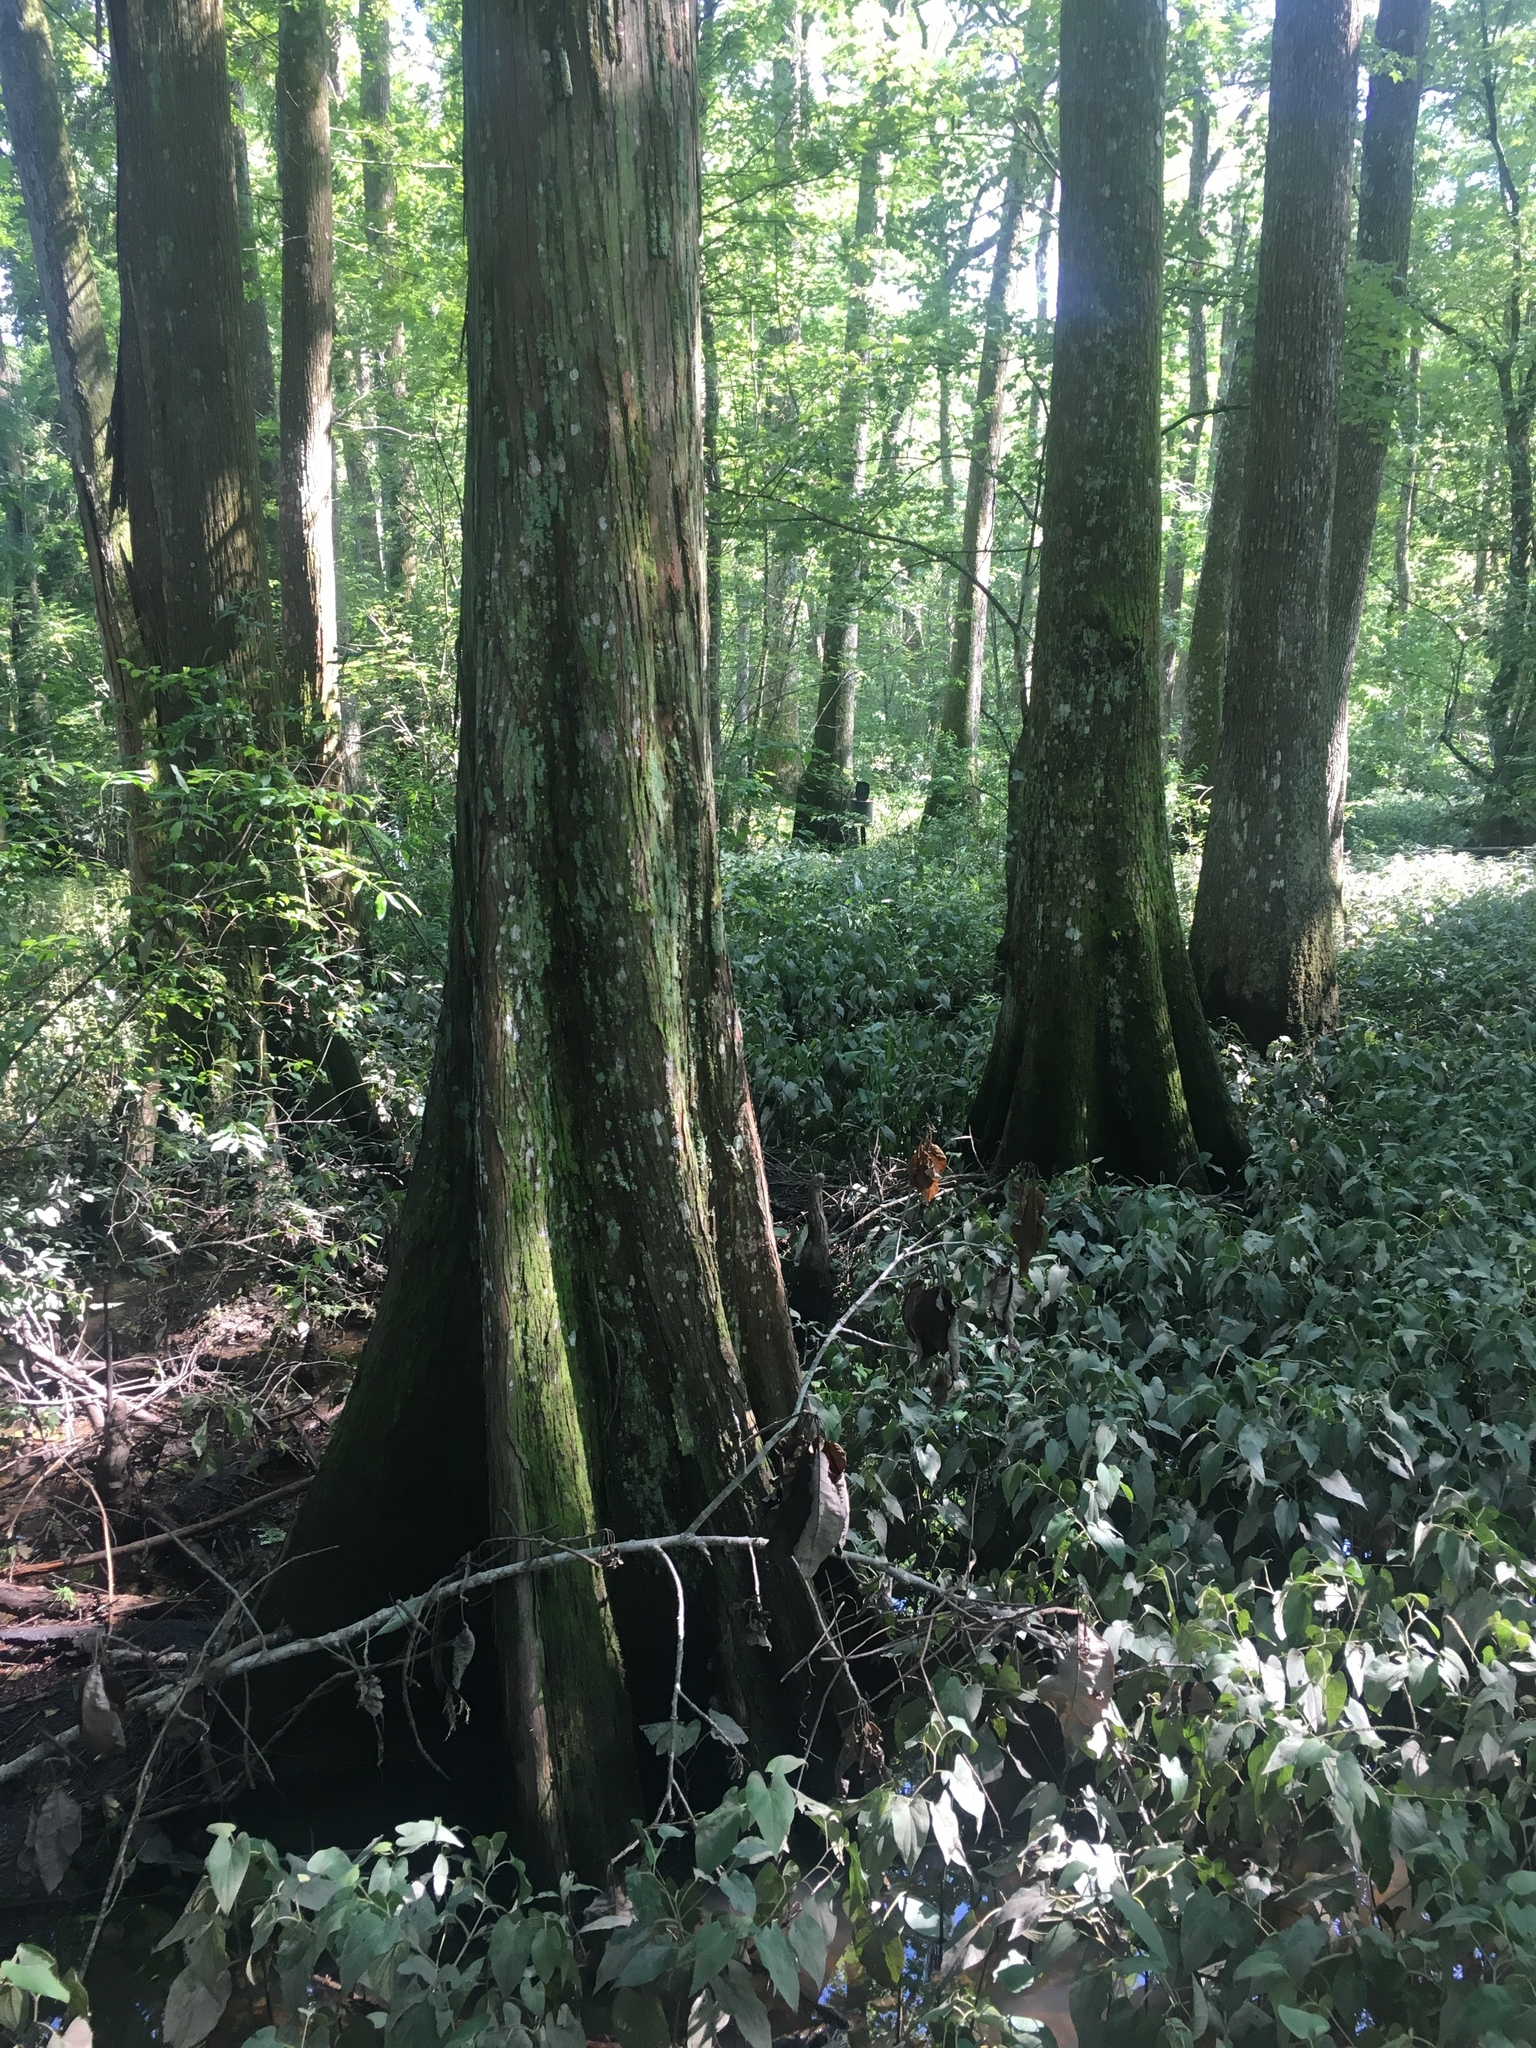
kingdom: Plantae
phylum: Tracheophyta
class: Pinopsida
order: Pinales
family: Cupressaceae
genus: Taxodium
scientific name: Taxodium distichum
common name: Bald cypress
